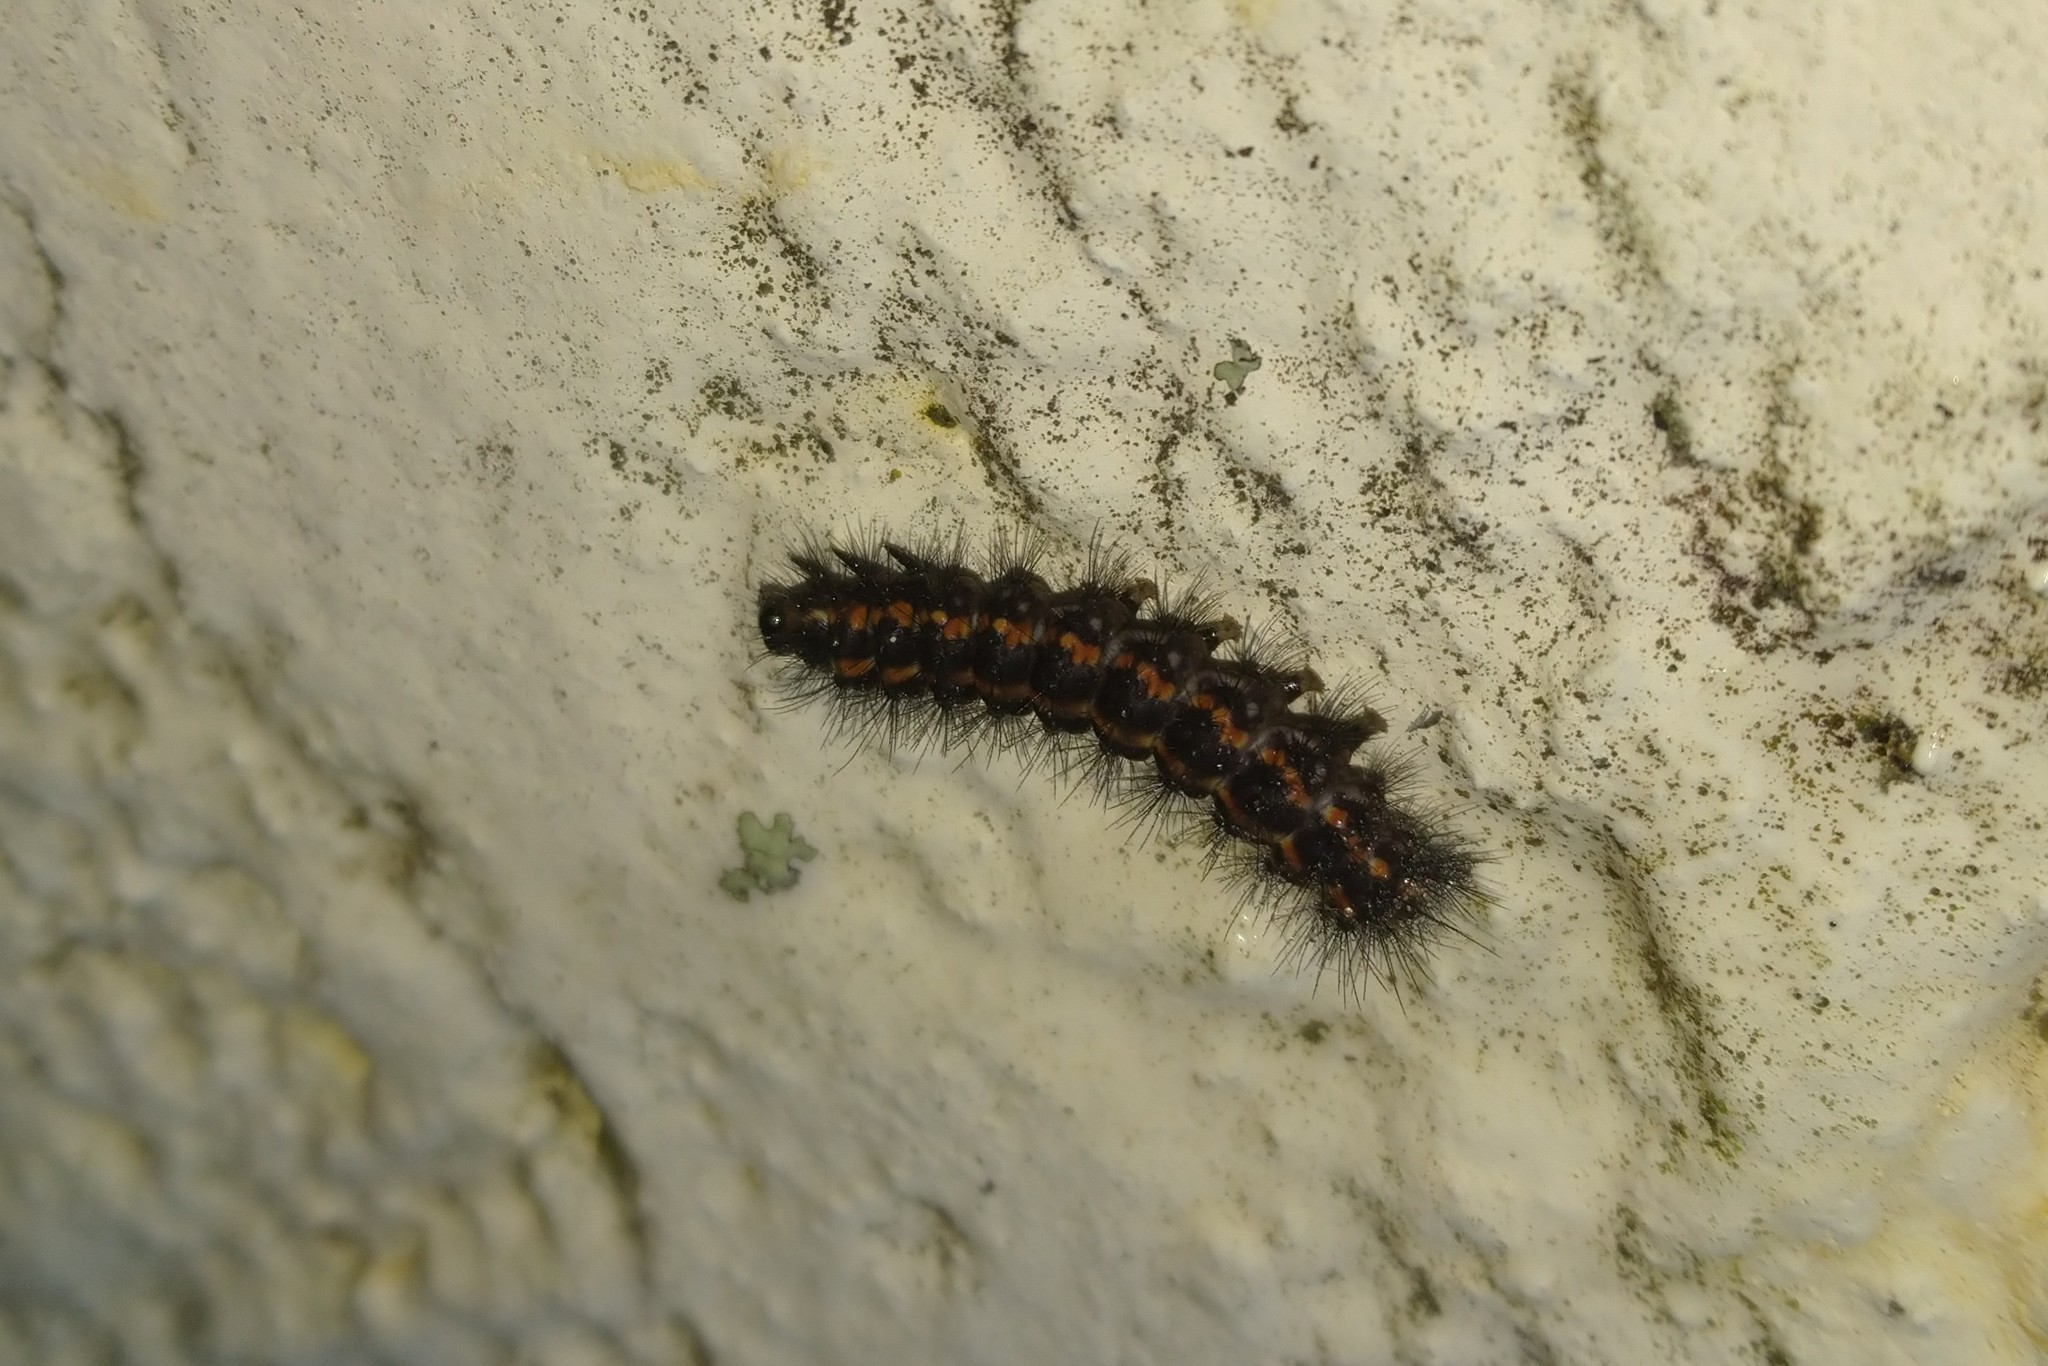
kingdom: Animalia
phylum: Arthropoda
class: Insecta
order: Lepidoptera
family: Erebidae
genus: Nyctemera
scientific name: Nyctemera annulatum
